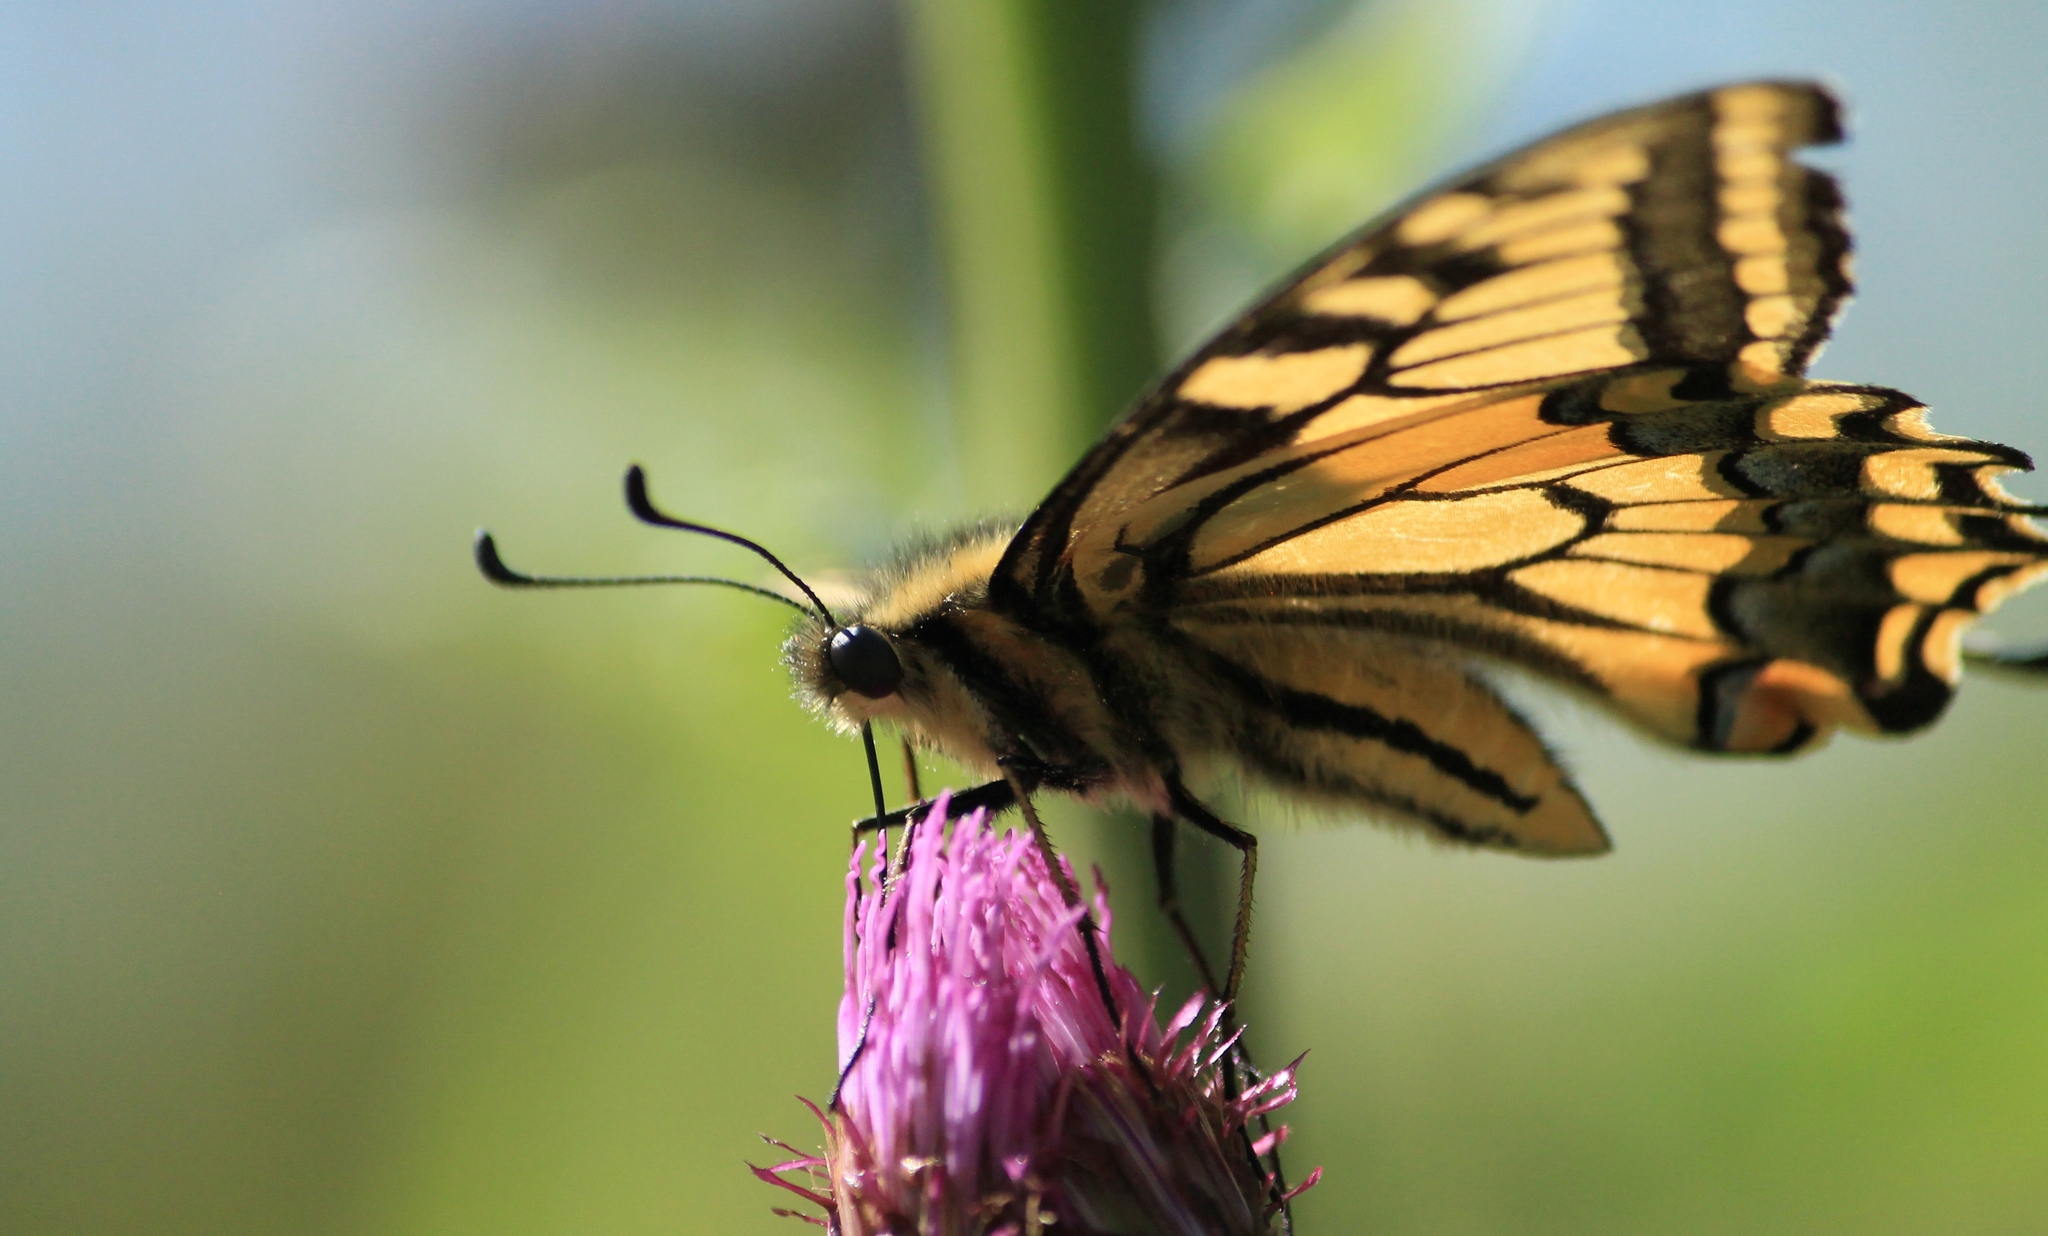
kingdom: Animalia
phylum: Arthropoda
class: Insecta
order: Lepidoptera
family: Papilionidae
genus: Papilio
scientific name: Papilio machaon
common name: Swallowtail
